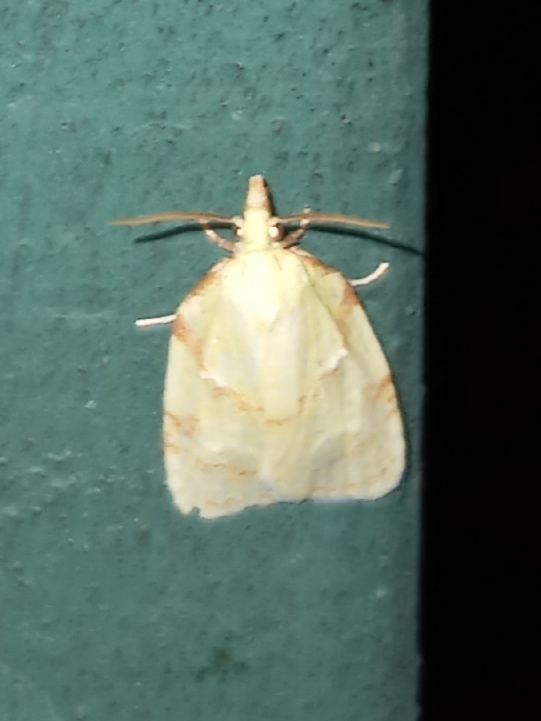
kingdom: Animalia
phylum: Arthropoda
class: Insecta
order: Lepidoptera
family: Tortricidae
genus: Cenopis
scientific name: Cenopis pettitana
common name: Maple-basswood leafroller moth
